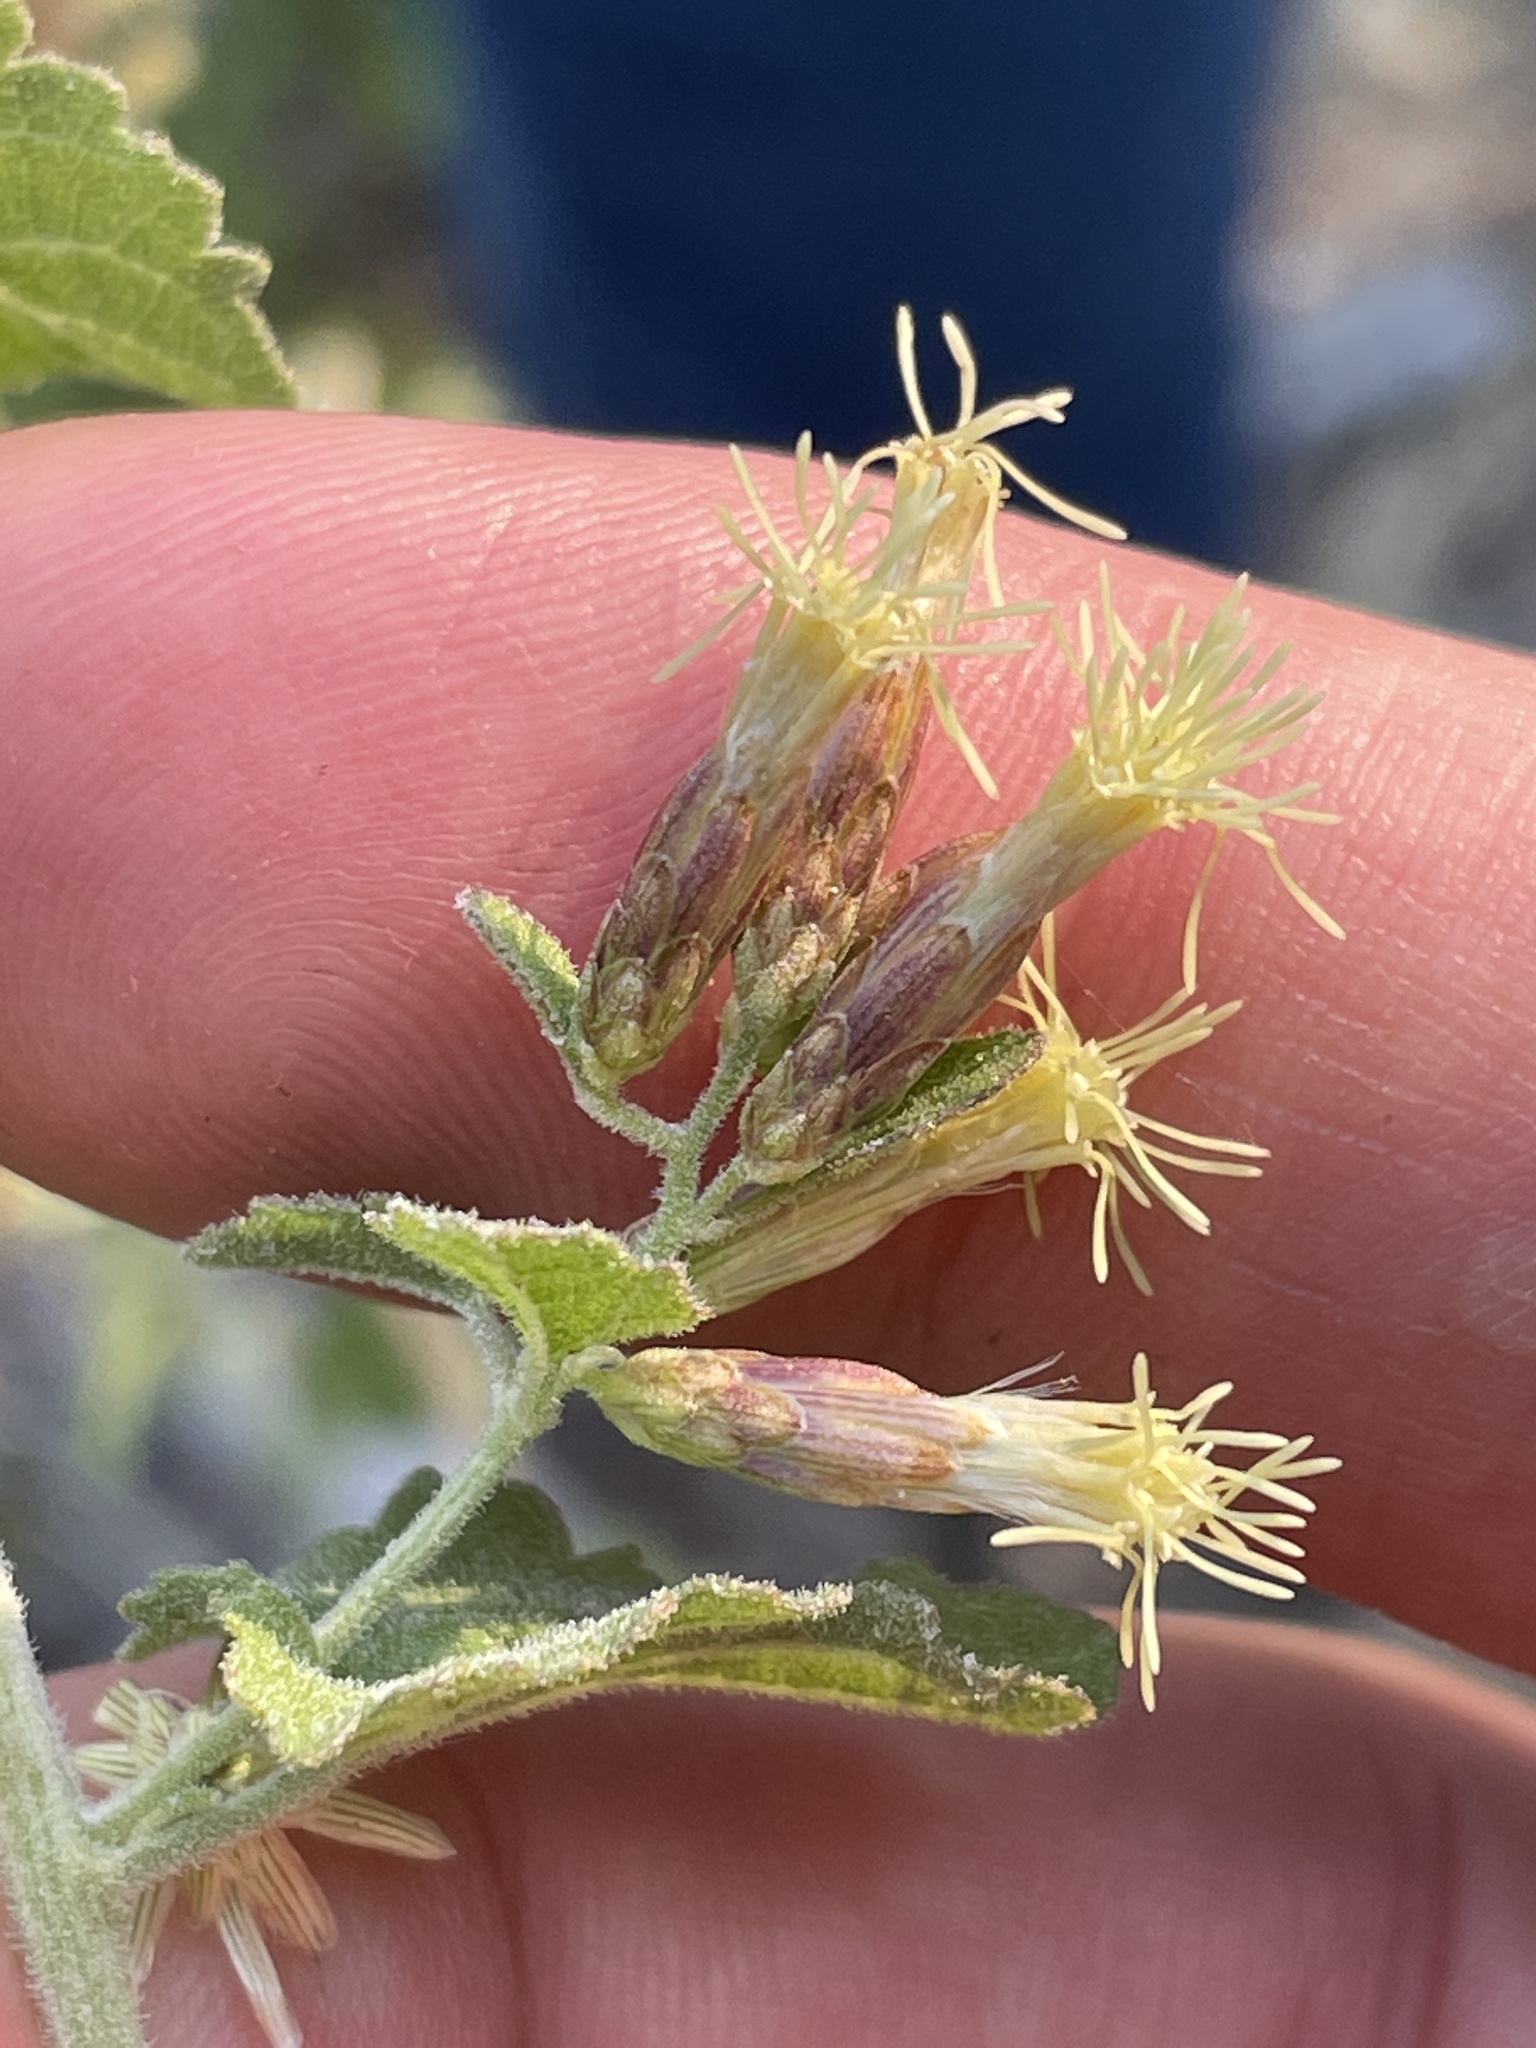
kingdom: Plantae
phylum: Tracheophyta
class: Magnoliopsida
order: Asterales
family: Asteraceae
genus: Brickellia
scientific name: Brickellia californica
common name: California brickellbush
